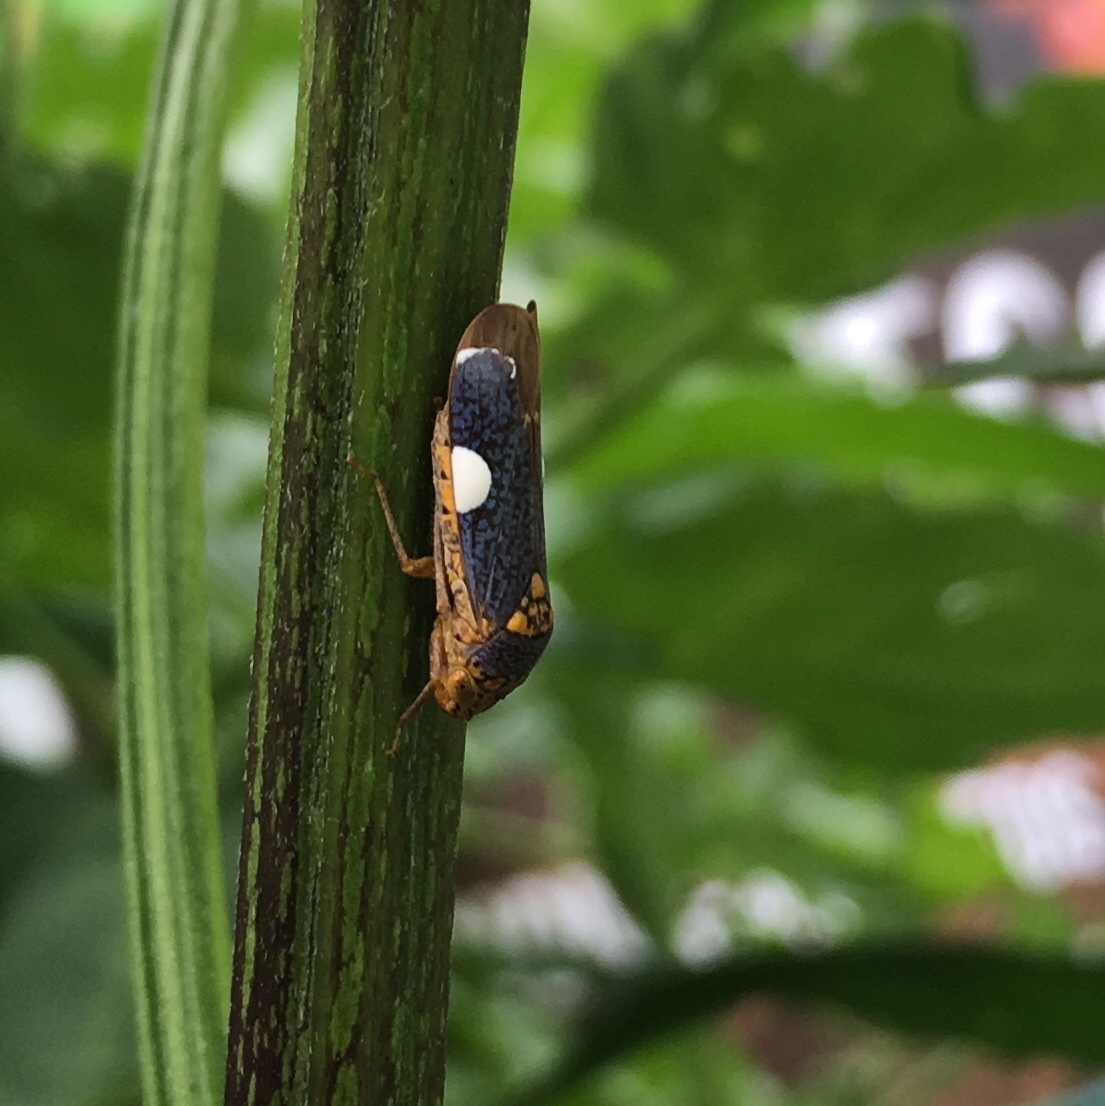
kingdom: Animalia
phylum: Arthropoda
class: Insecta
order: Hemiptera
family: Cicadellidae
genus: Oncometopia
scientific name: Oncometopia orbona
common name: Broad-headed sharpshooter
